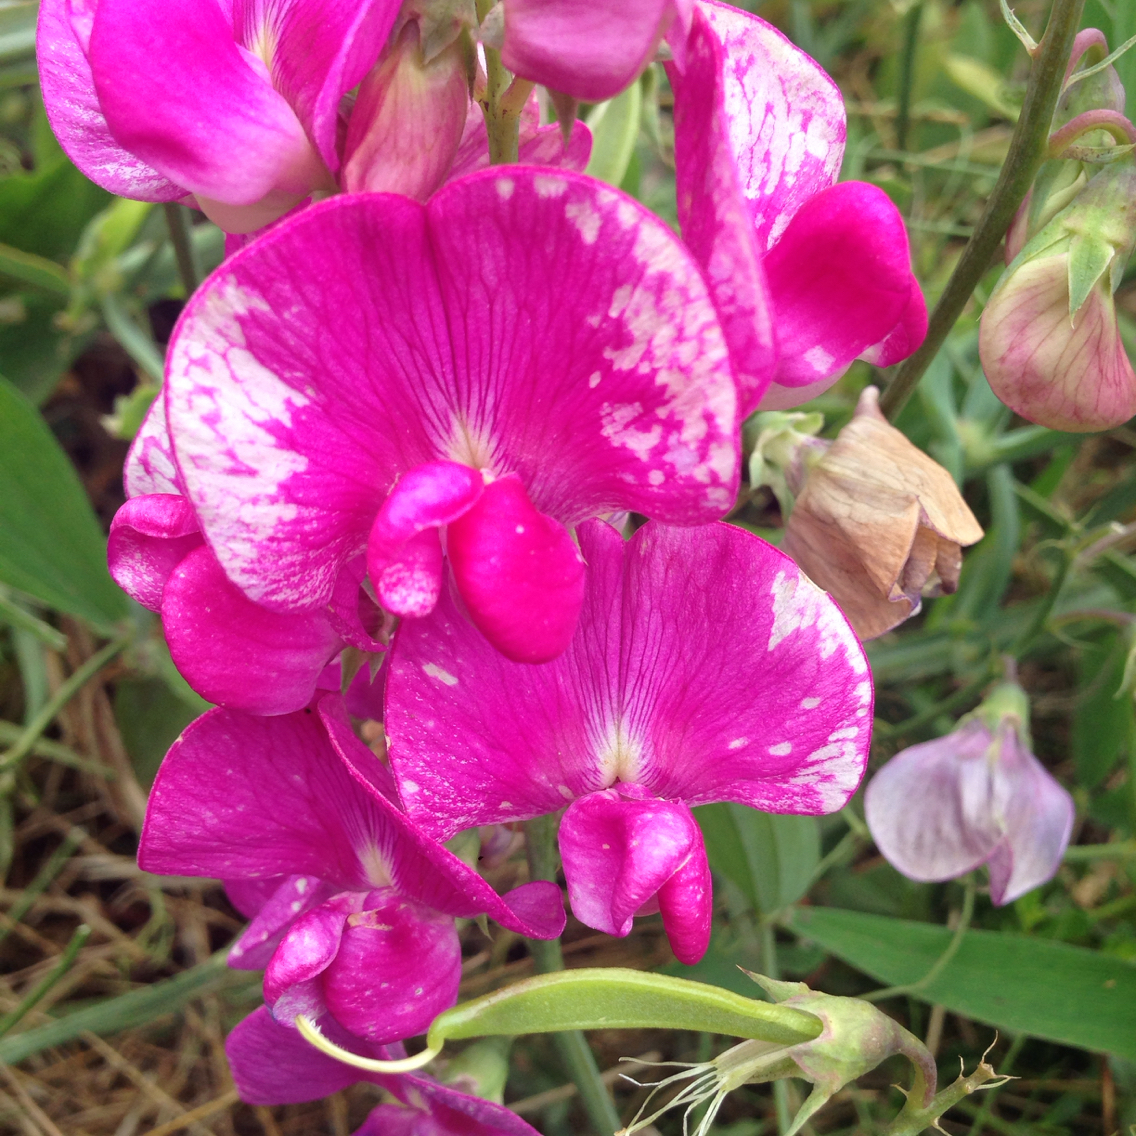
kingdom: Plantae
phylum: Tracheophyta
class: Magnoliopsida
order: Fabales
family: Fabaceae
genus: Lathyrus
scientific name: Lathyrus latifolius
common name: Perennial pea
